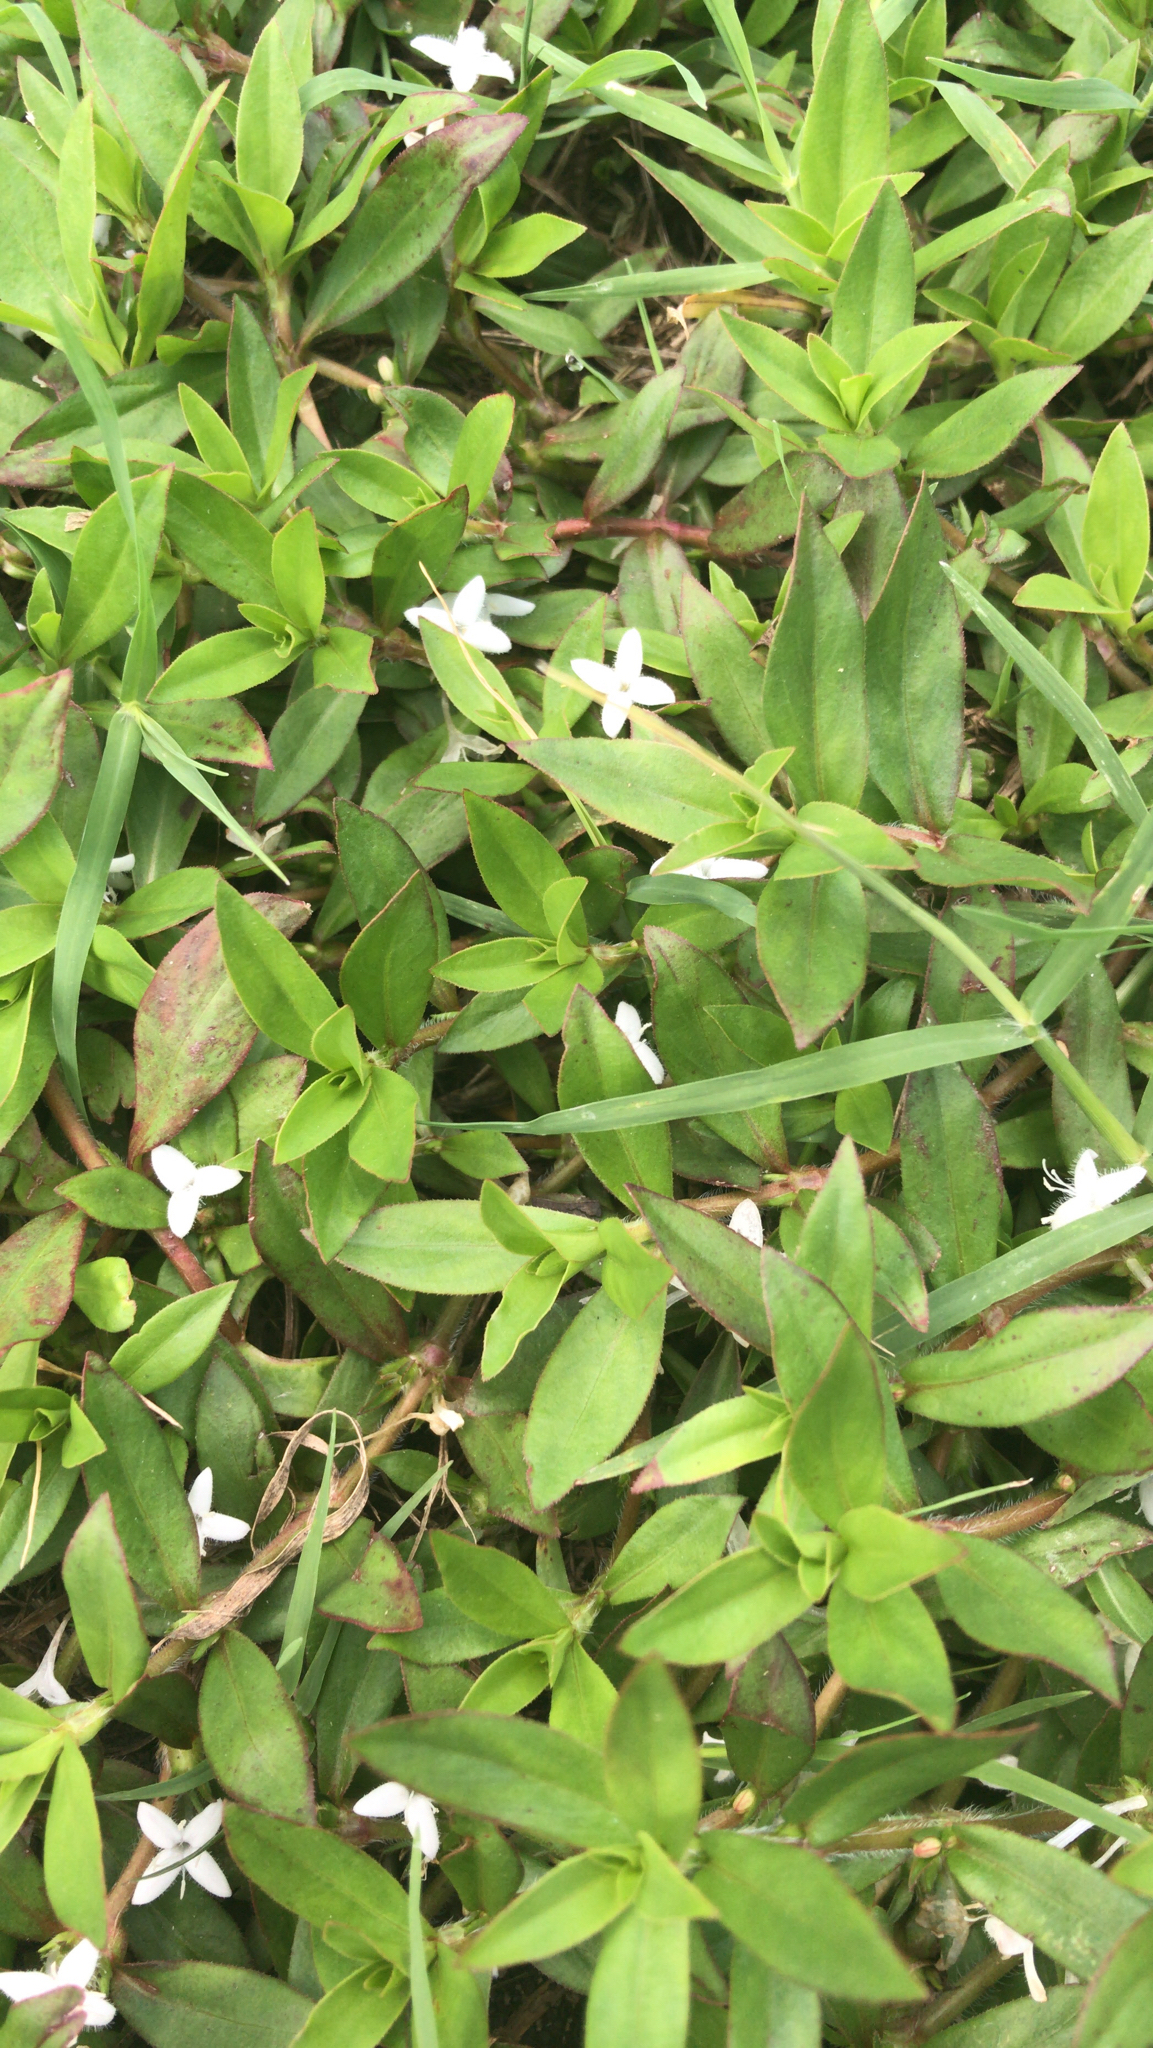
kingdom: Plantae
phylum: Tracheophyta
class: Magnoliopsida
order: Gentianales
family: Rubiaceae
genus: Diodia
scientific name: Diodia virginiana
